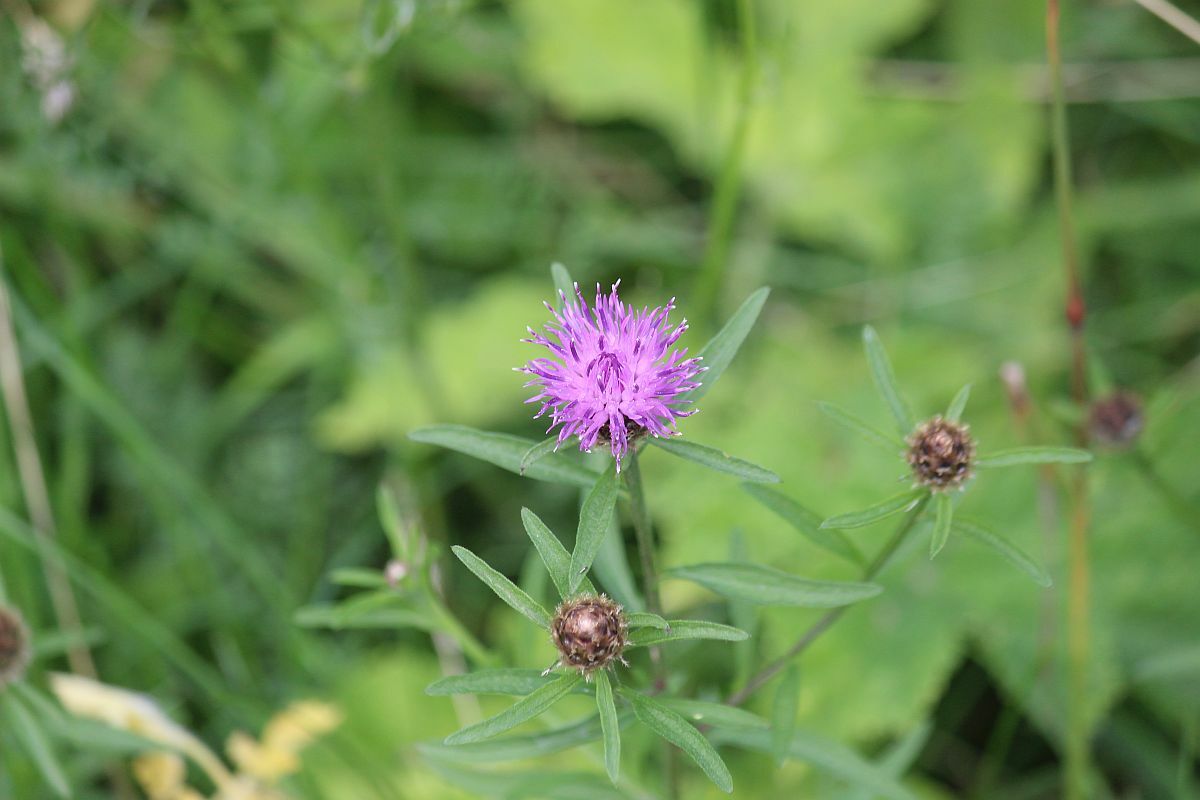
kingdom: Plantae
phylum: Tracheophyta
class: Magnoliopsida
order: Asterales
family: Asteraceae
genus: Centaurea
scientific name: Centaurea nigra
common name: Lesser knapweed
